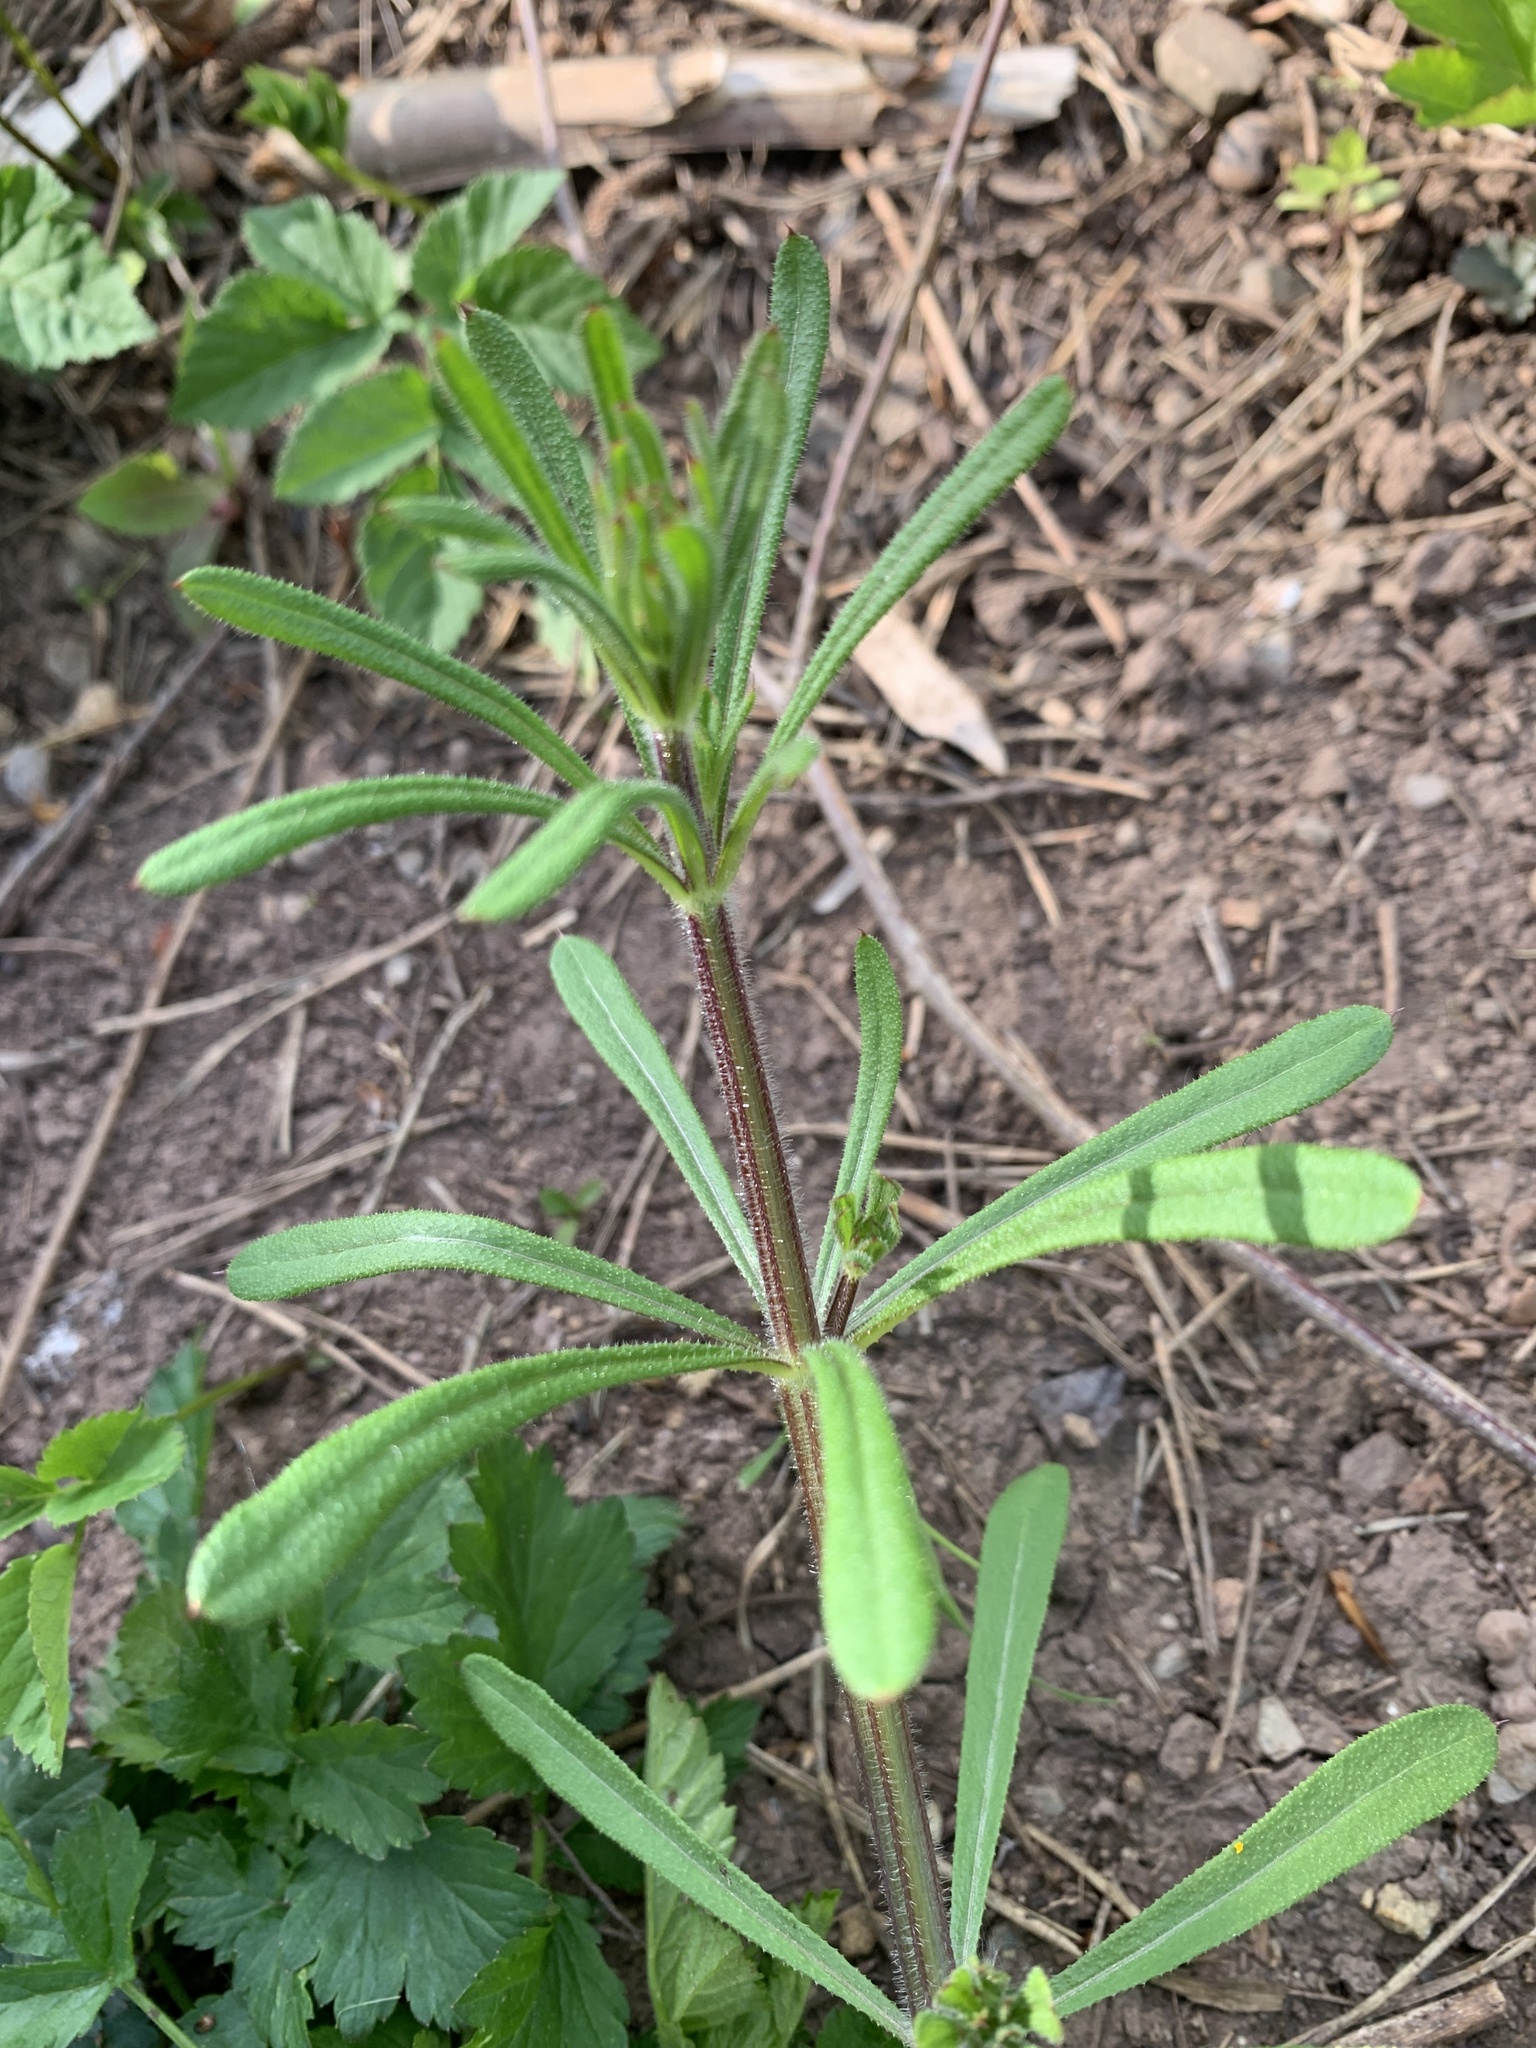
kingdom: Plantae
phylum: Tracheophyta
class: Magnoliopsida
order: Gentianales
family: Rubiaceae
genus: Galium
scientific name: Galium aparine
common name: Cleavers
